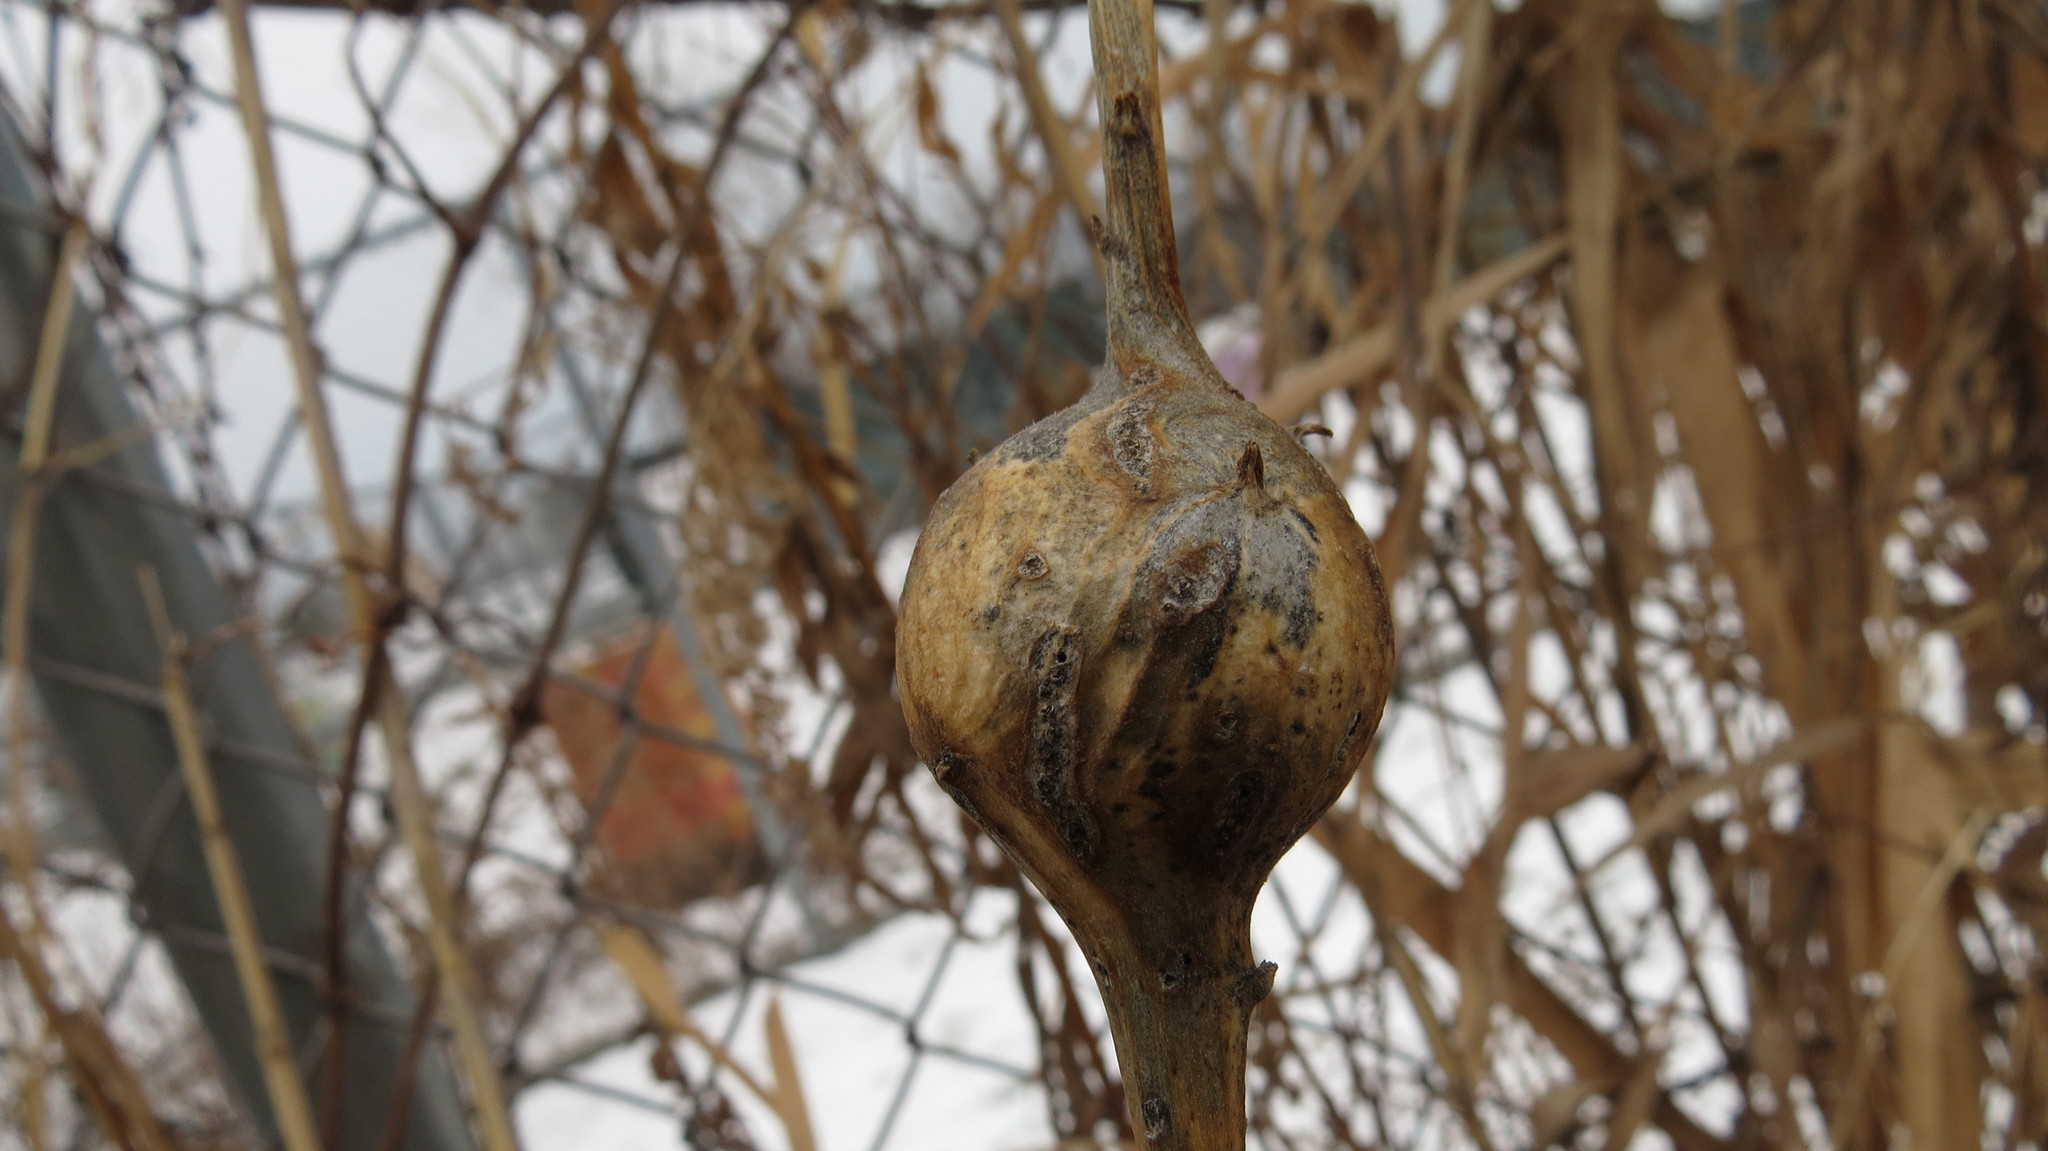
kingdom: Animalia
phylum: Arthropoda
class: Insecta
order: Diptera
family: Tephritidae
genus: Eurosta
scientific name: Eurosta solidaginis
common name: Goldenrod gall fly
